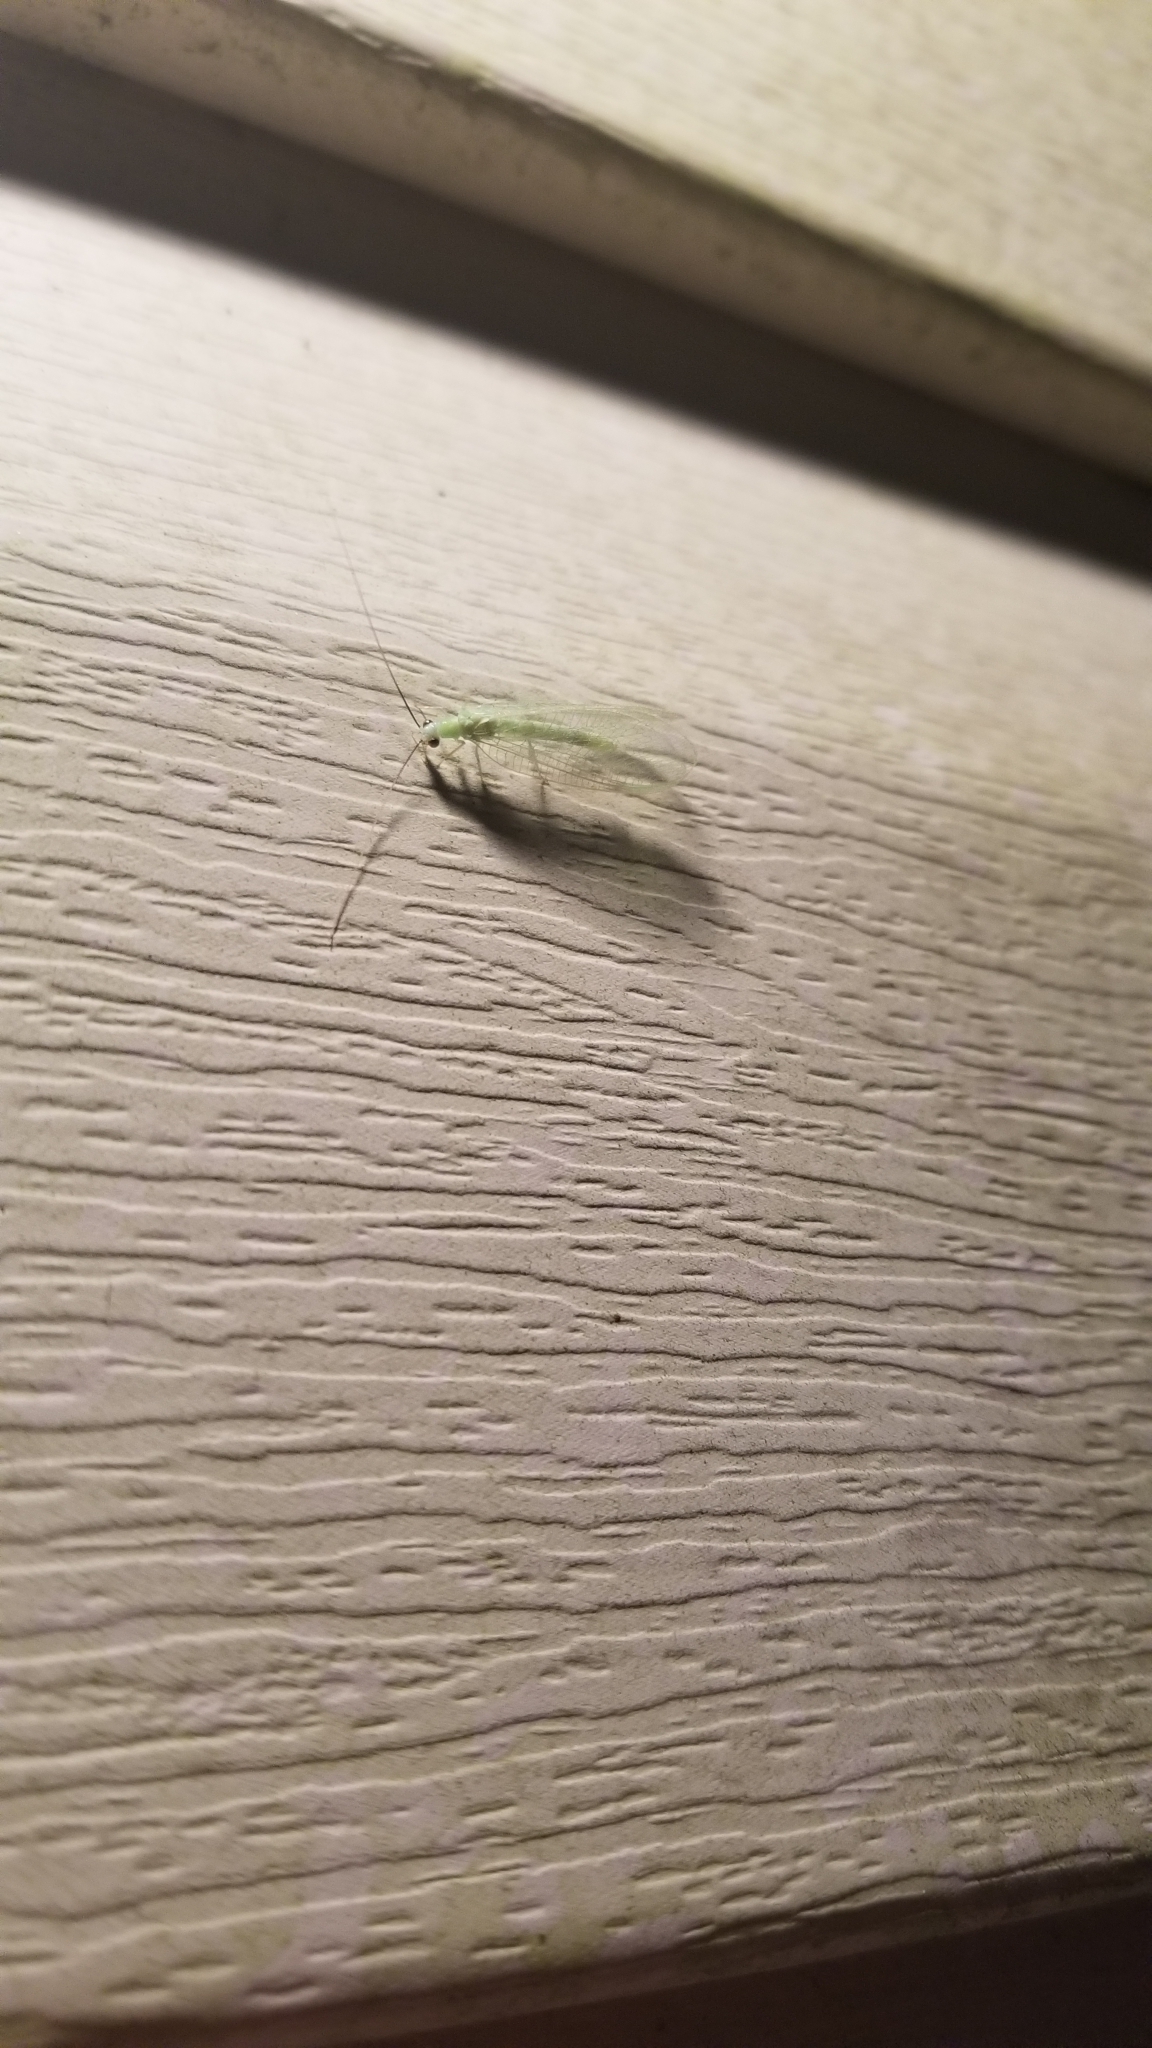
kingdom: Animalia
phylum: Arthropoda
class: Insecta
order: Neuroptera
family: Chrysopidae
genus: Chrysopa
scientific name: Chrysopa nigricornis
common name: Black-horned green lacewing
